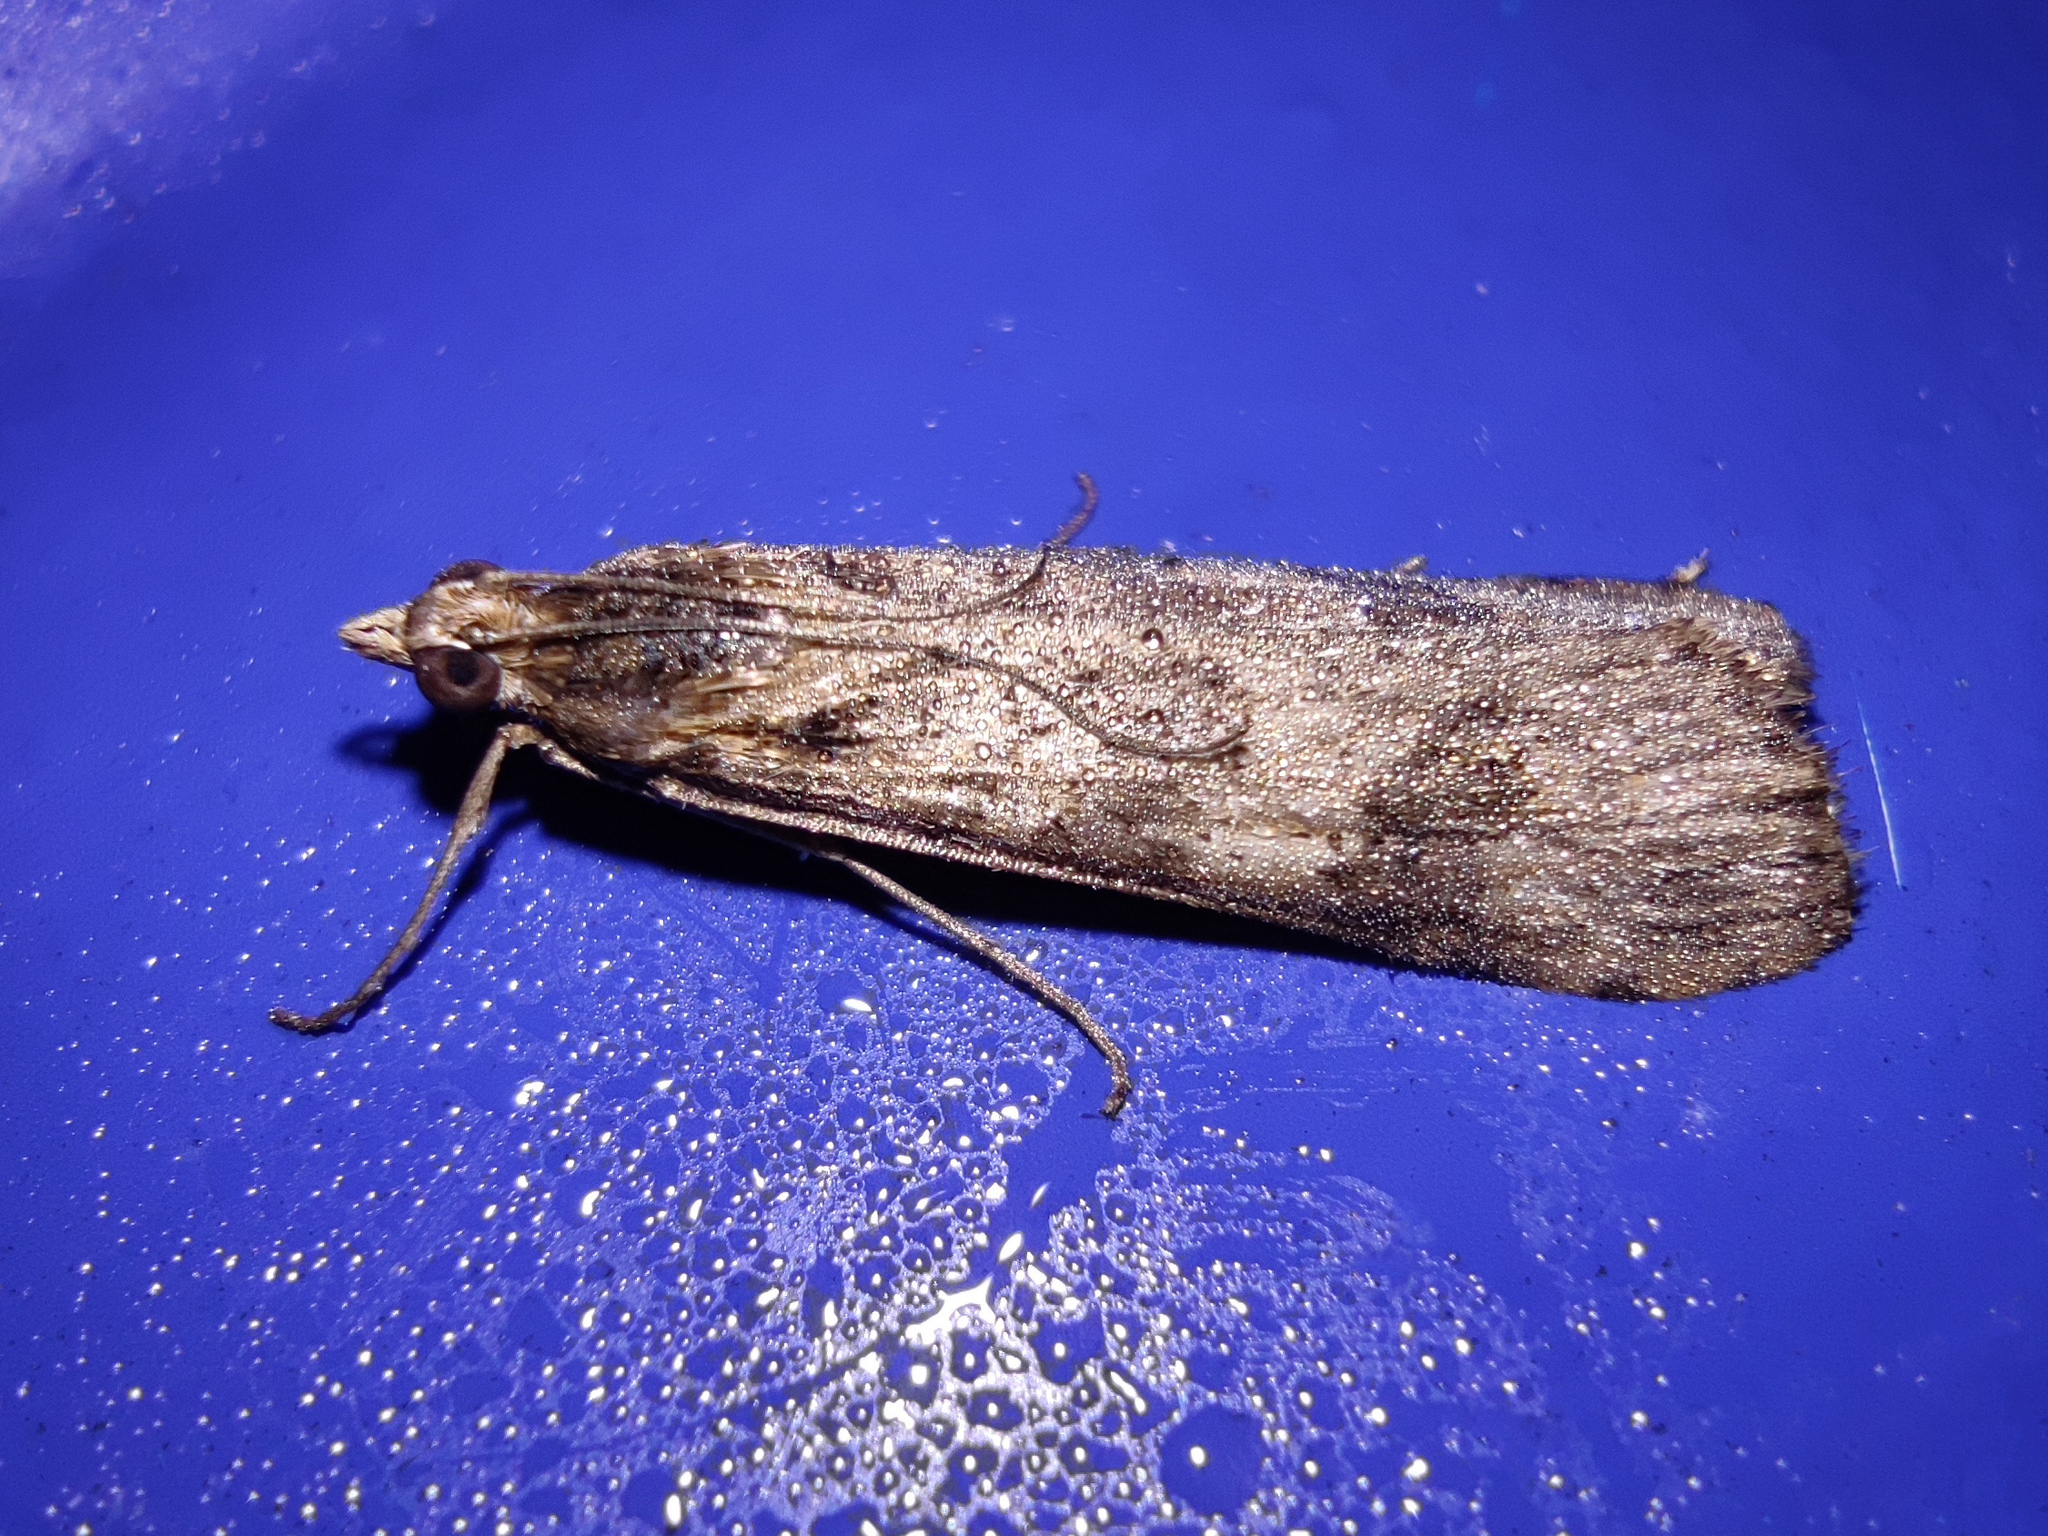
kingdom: Animalia
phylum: Arthropoda
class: Insecta
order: Lepidoptera
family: Crambidae
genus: Nomophila
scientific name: Nomophila noctuella
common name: Rush veneer
